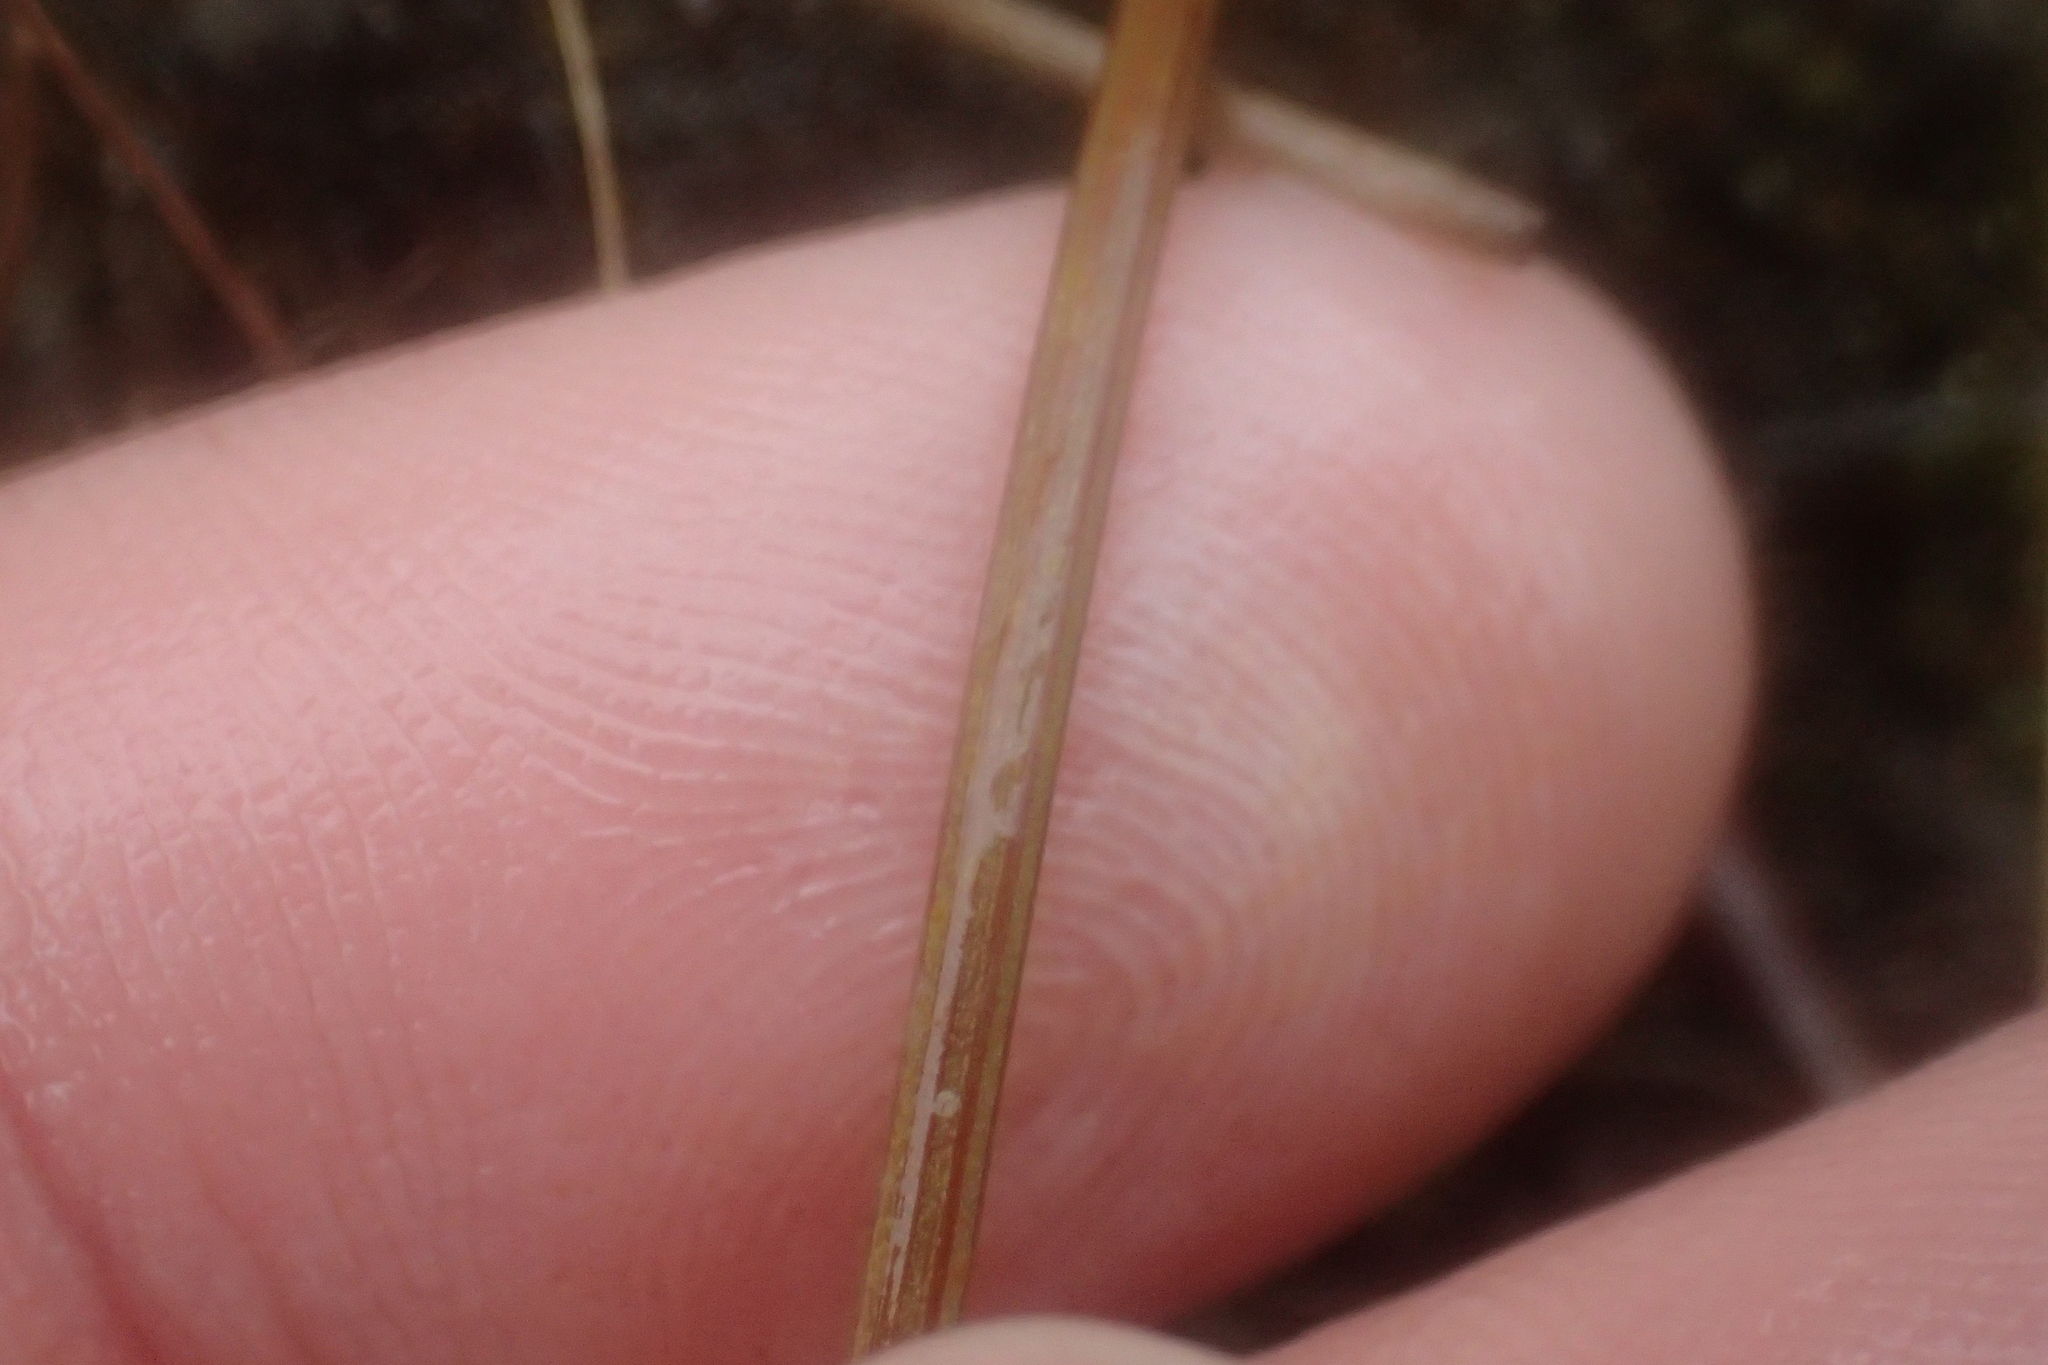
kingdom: Plantae
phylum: Tracheophyta
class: Magnoliopsida
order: Apiales
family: Apiaceae
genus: Anisotome
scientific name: Anisotome filifolia
